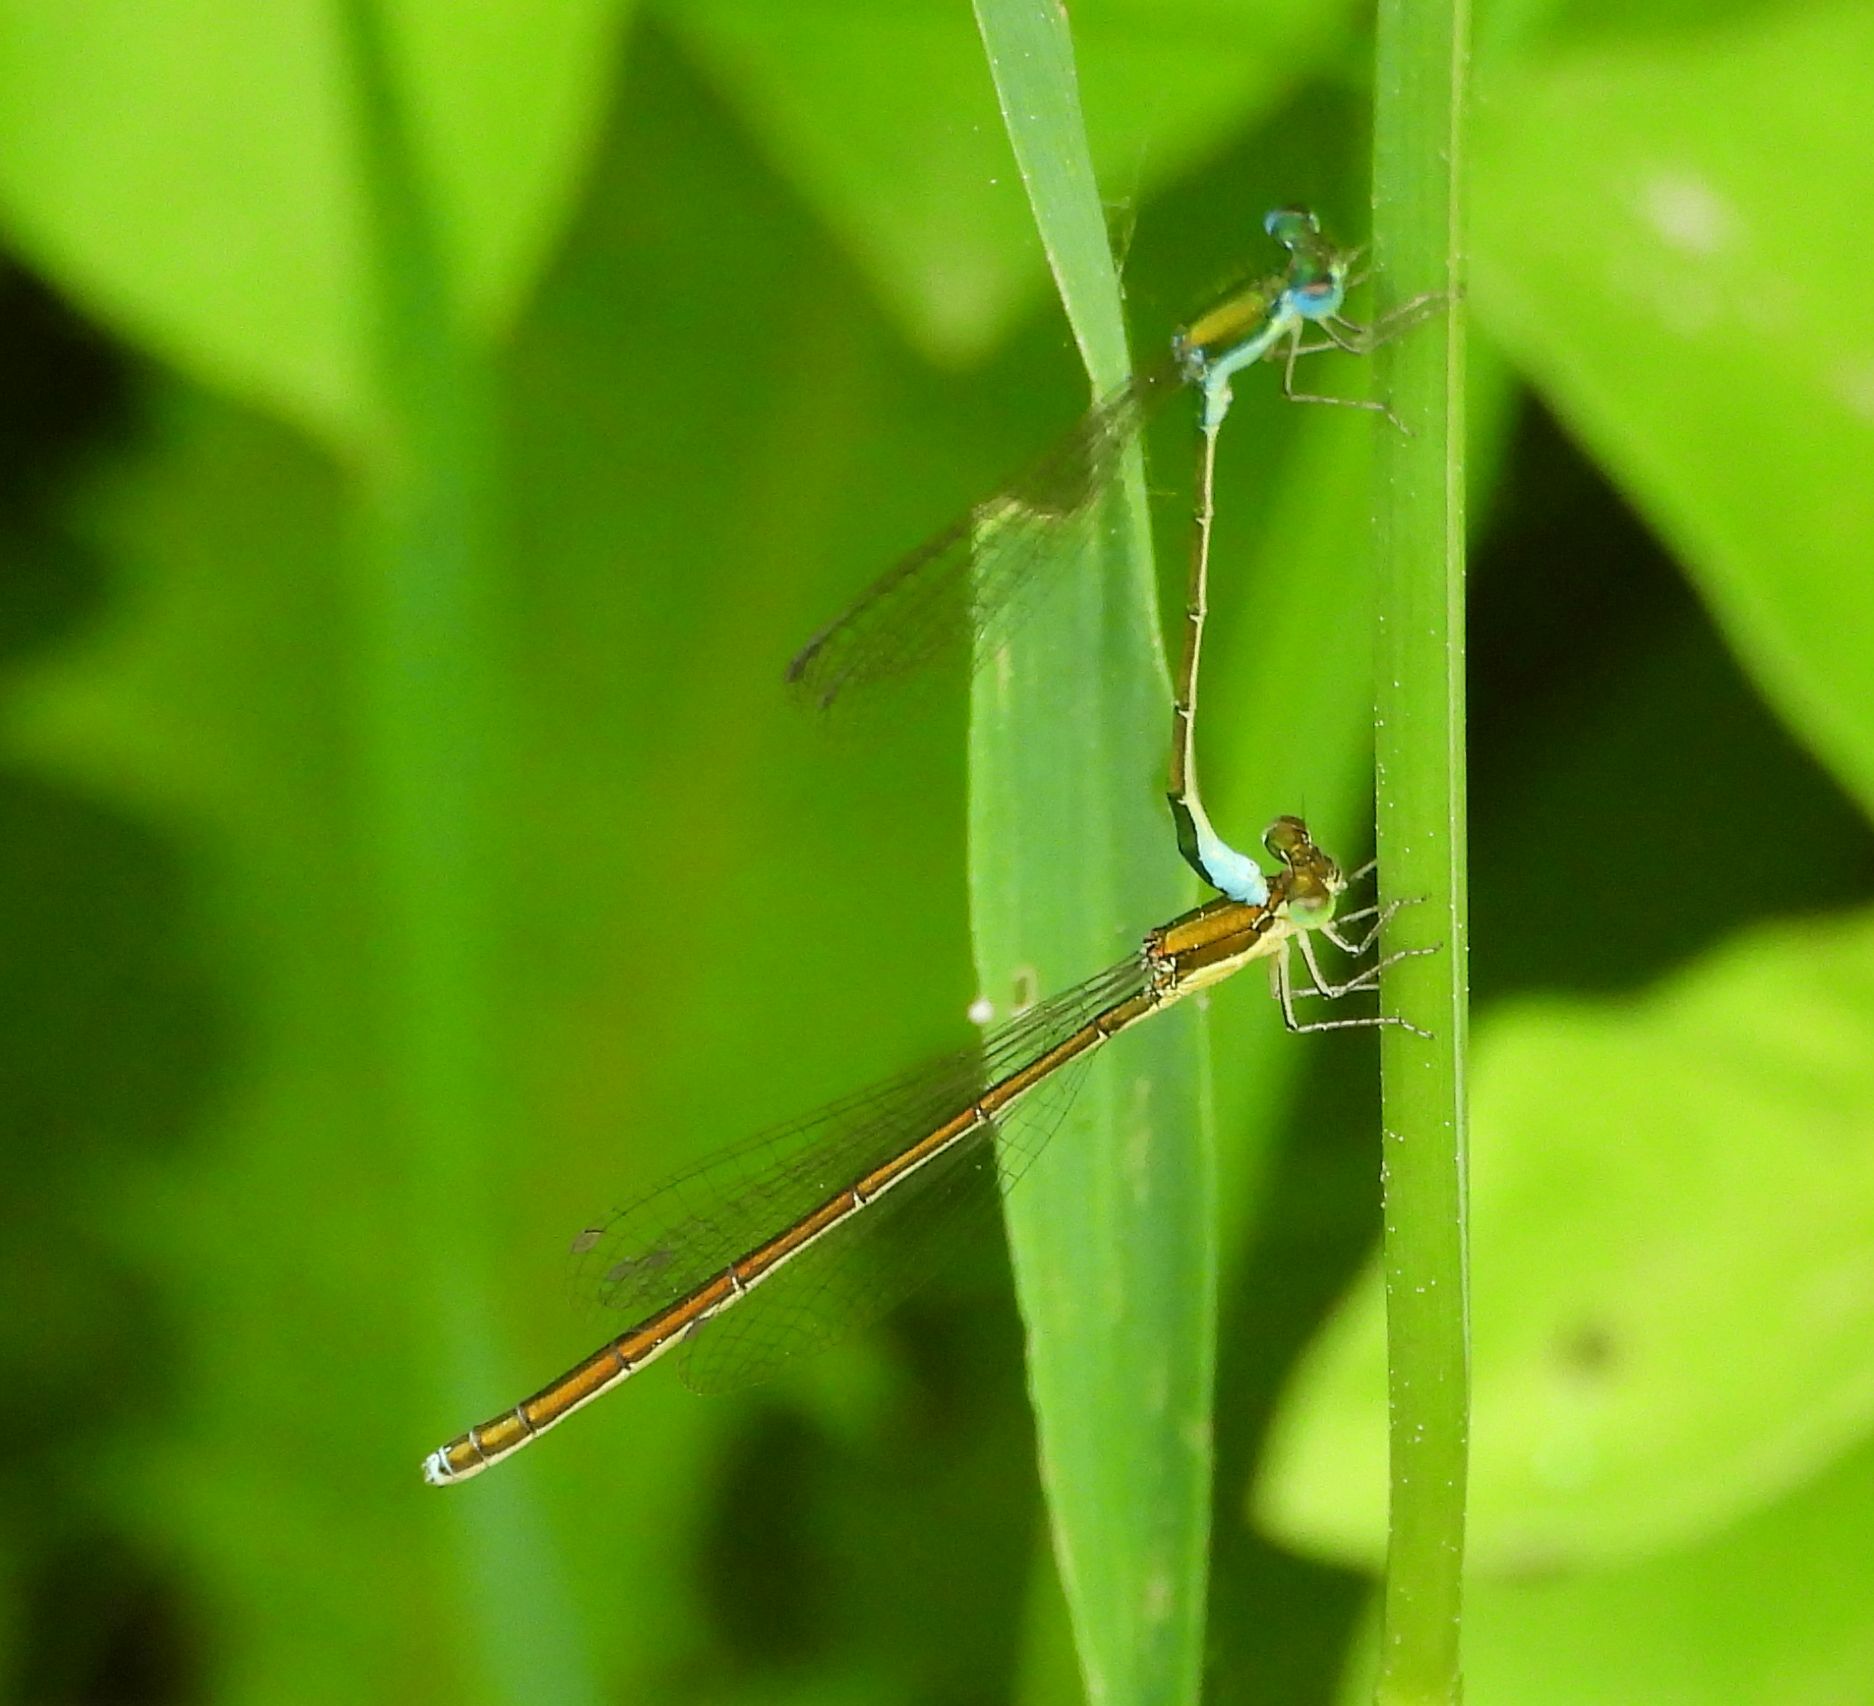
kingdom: Animalia
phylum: Arthropoda
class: Insecta
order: Odonata
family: Coenagrionidae
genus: Nehalennia
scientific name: Nehalennia irene
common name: Sedge sprite
